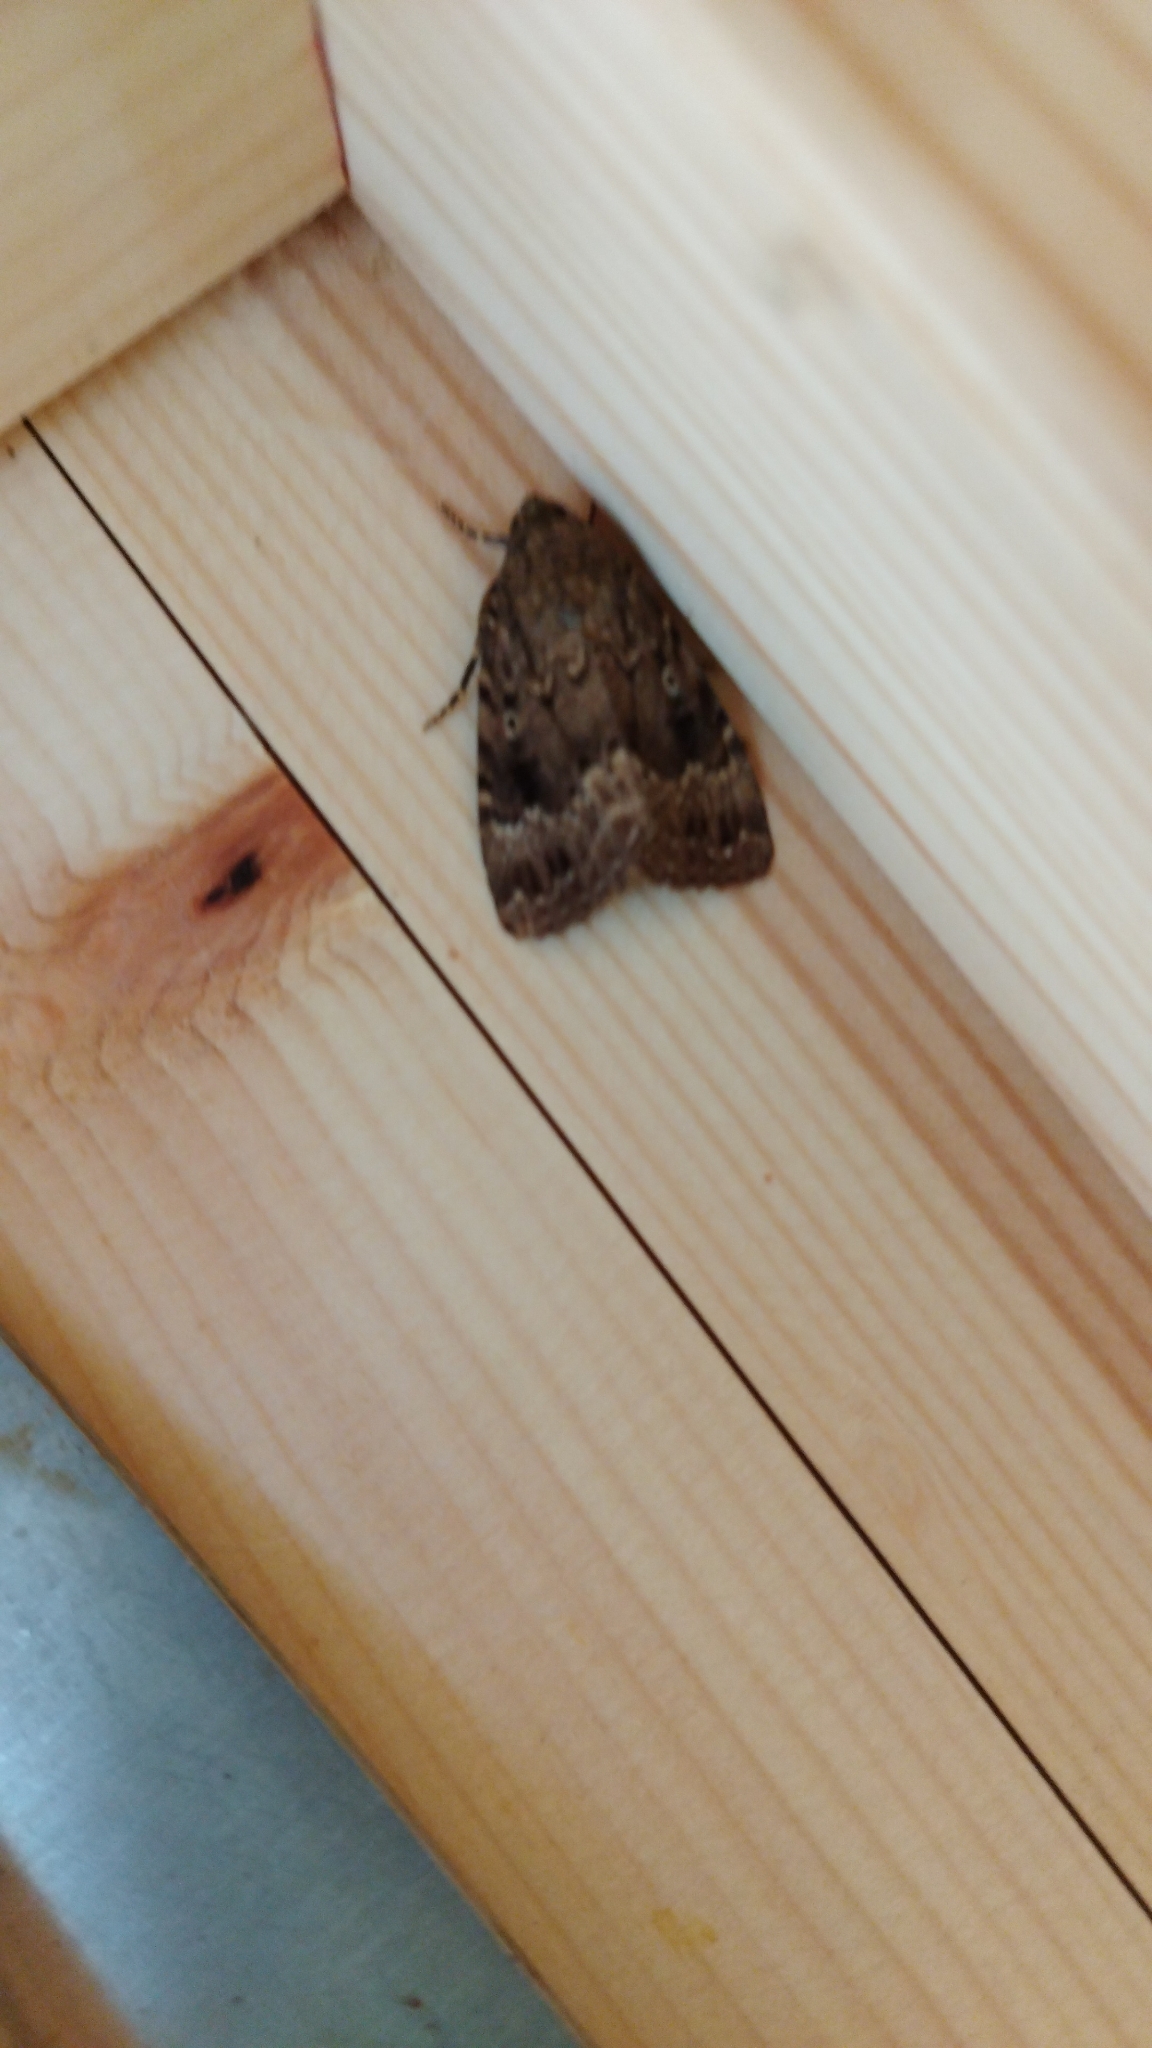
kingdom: Animalia
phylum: Arthropoda
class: Insecta
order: Lepidoptera
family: Noctuidae
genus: Amphipyra
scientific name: Amphipyra pyramidea
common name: Copper underwing
